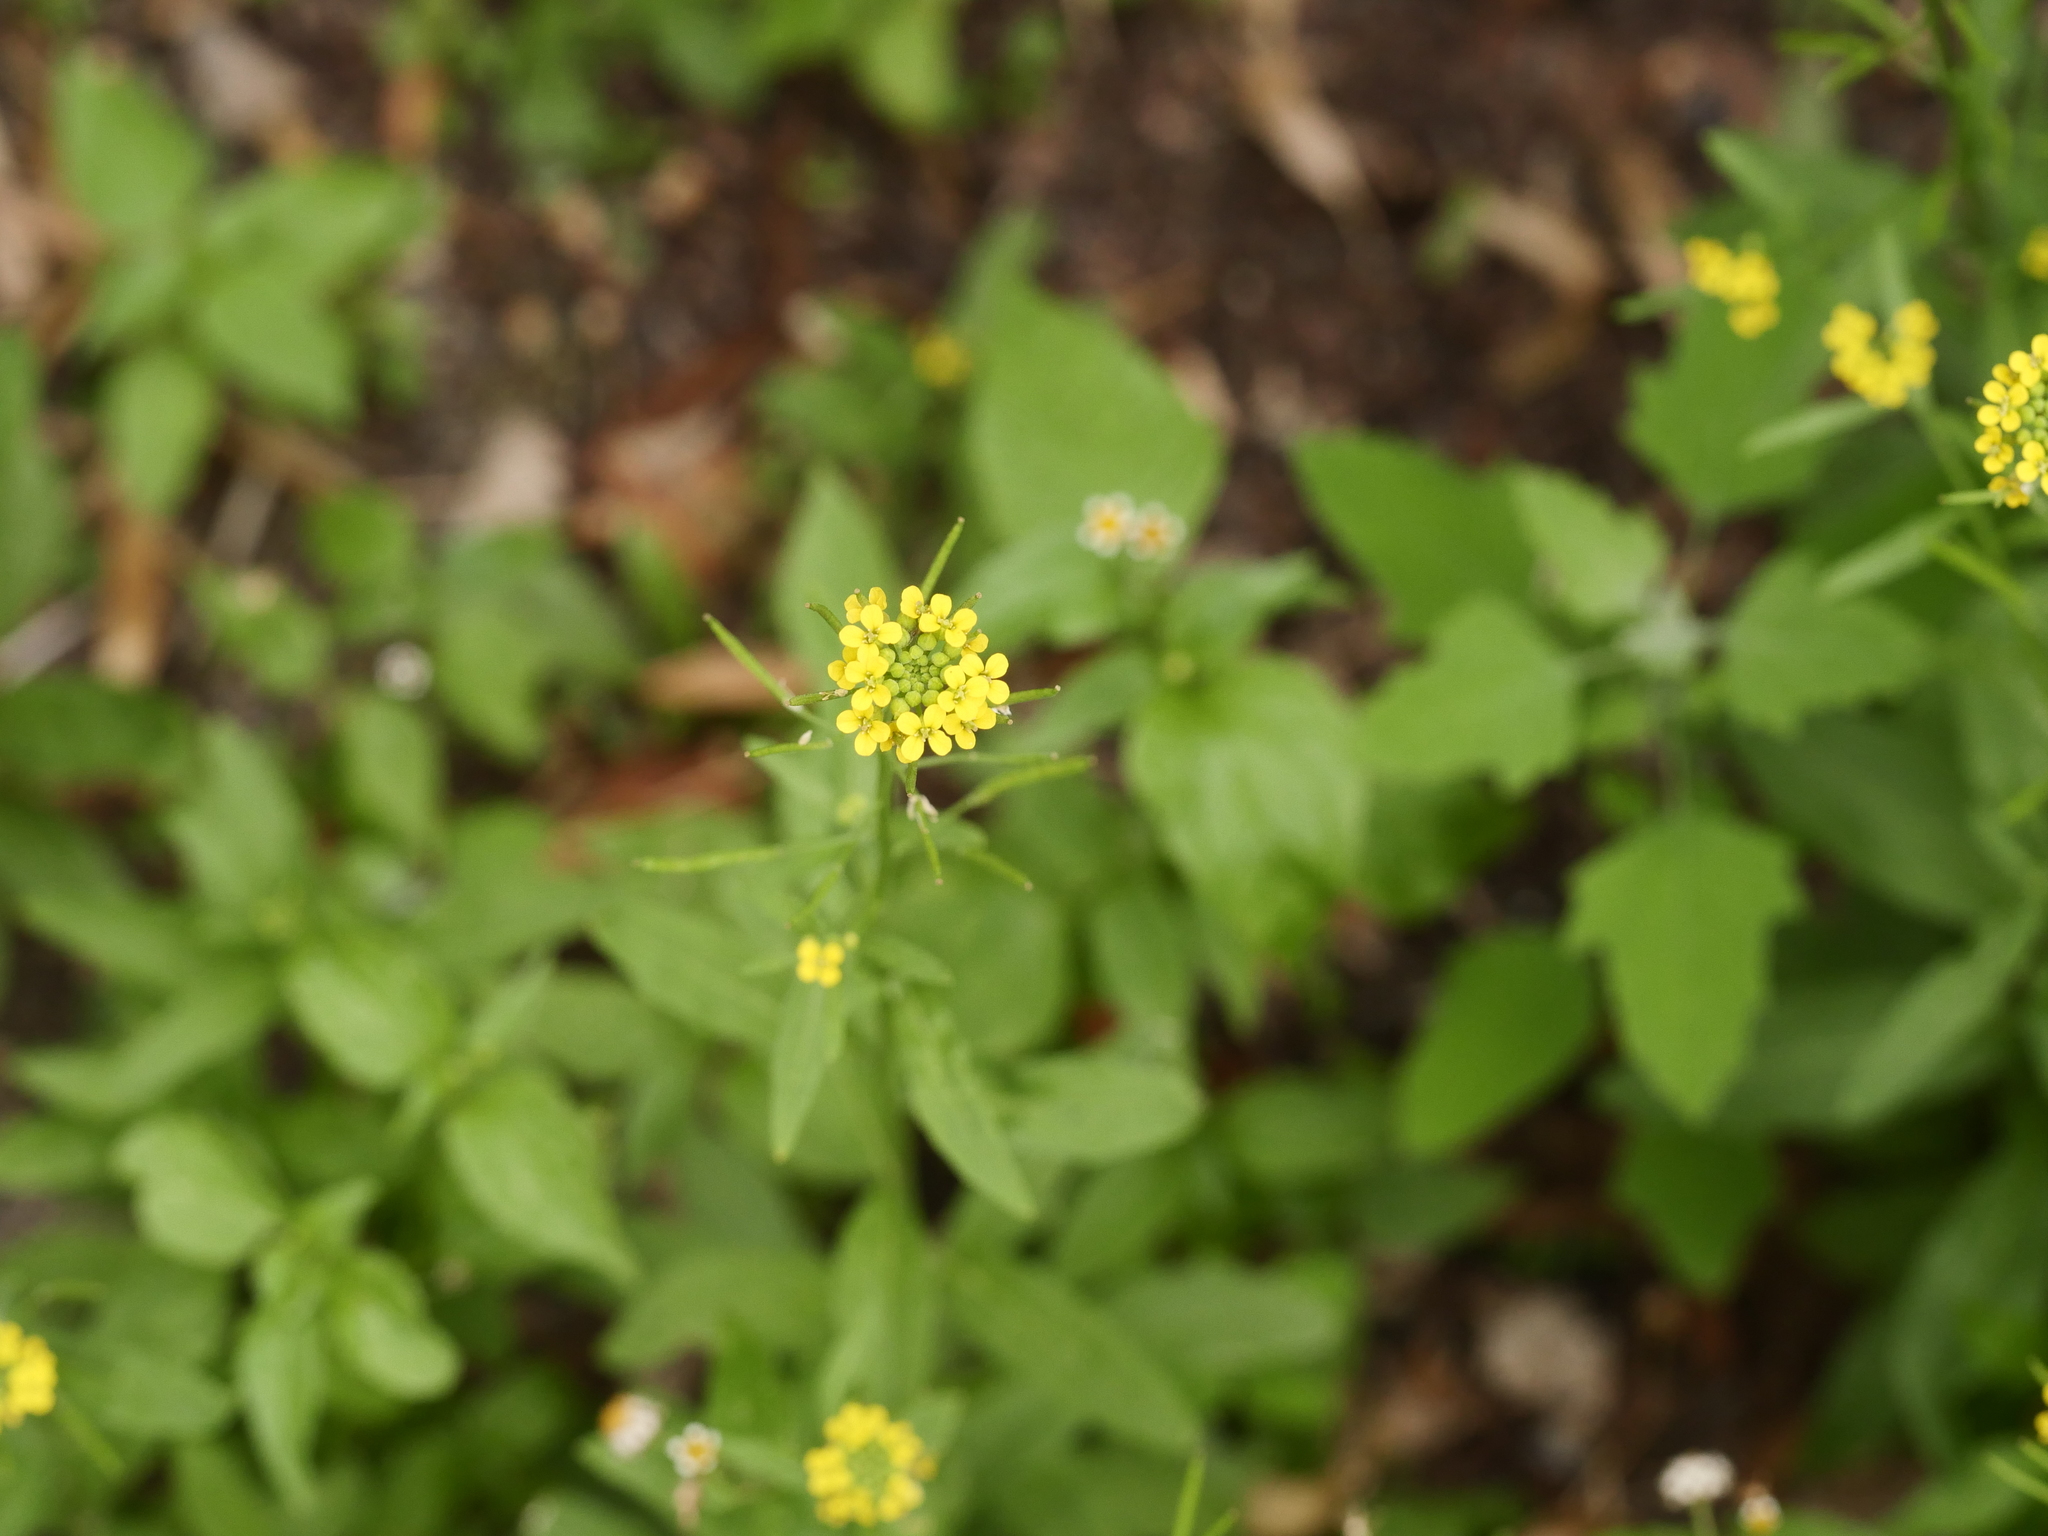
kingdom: Plantae
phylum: Tracheophyta
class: Magnoliopsida
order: Brassicales
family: Brassicaceae
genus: Erysimum
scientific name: Erysimum cheiranthoides
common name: Treacle mustard
